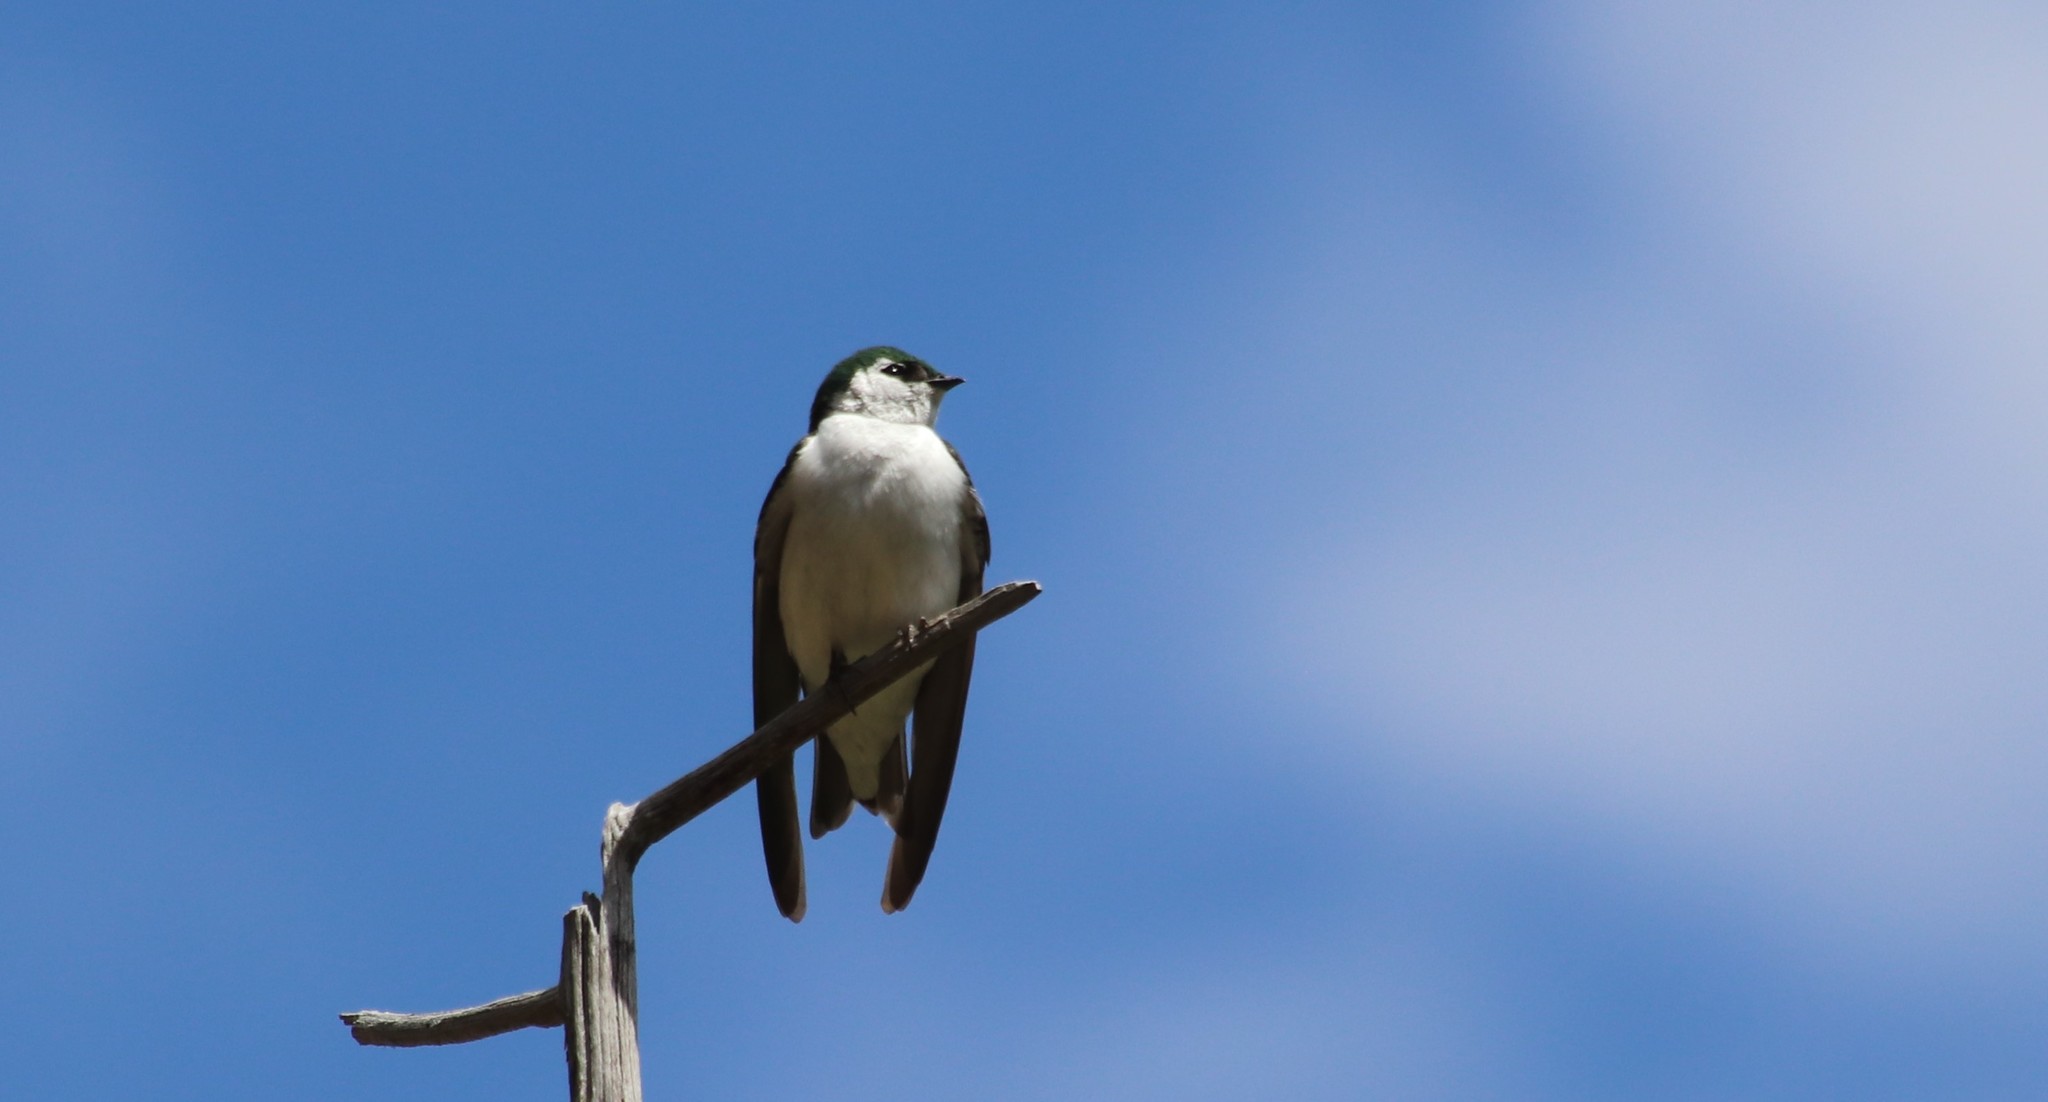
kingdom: Animalia
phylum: Chordata
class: Aves
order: Passeriformes
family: Hirundinidae
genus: Tachycineta
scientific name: Tachycineta thalassina
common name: Violet-green swallow
